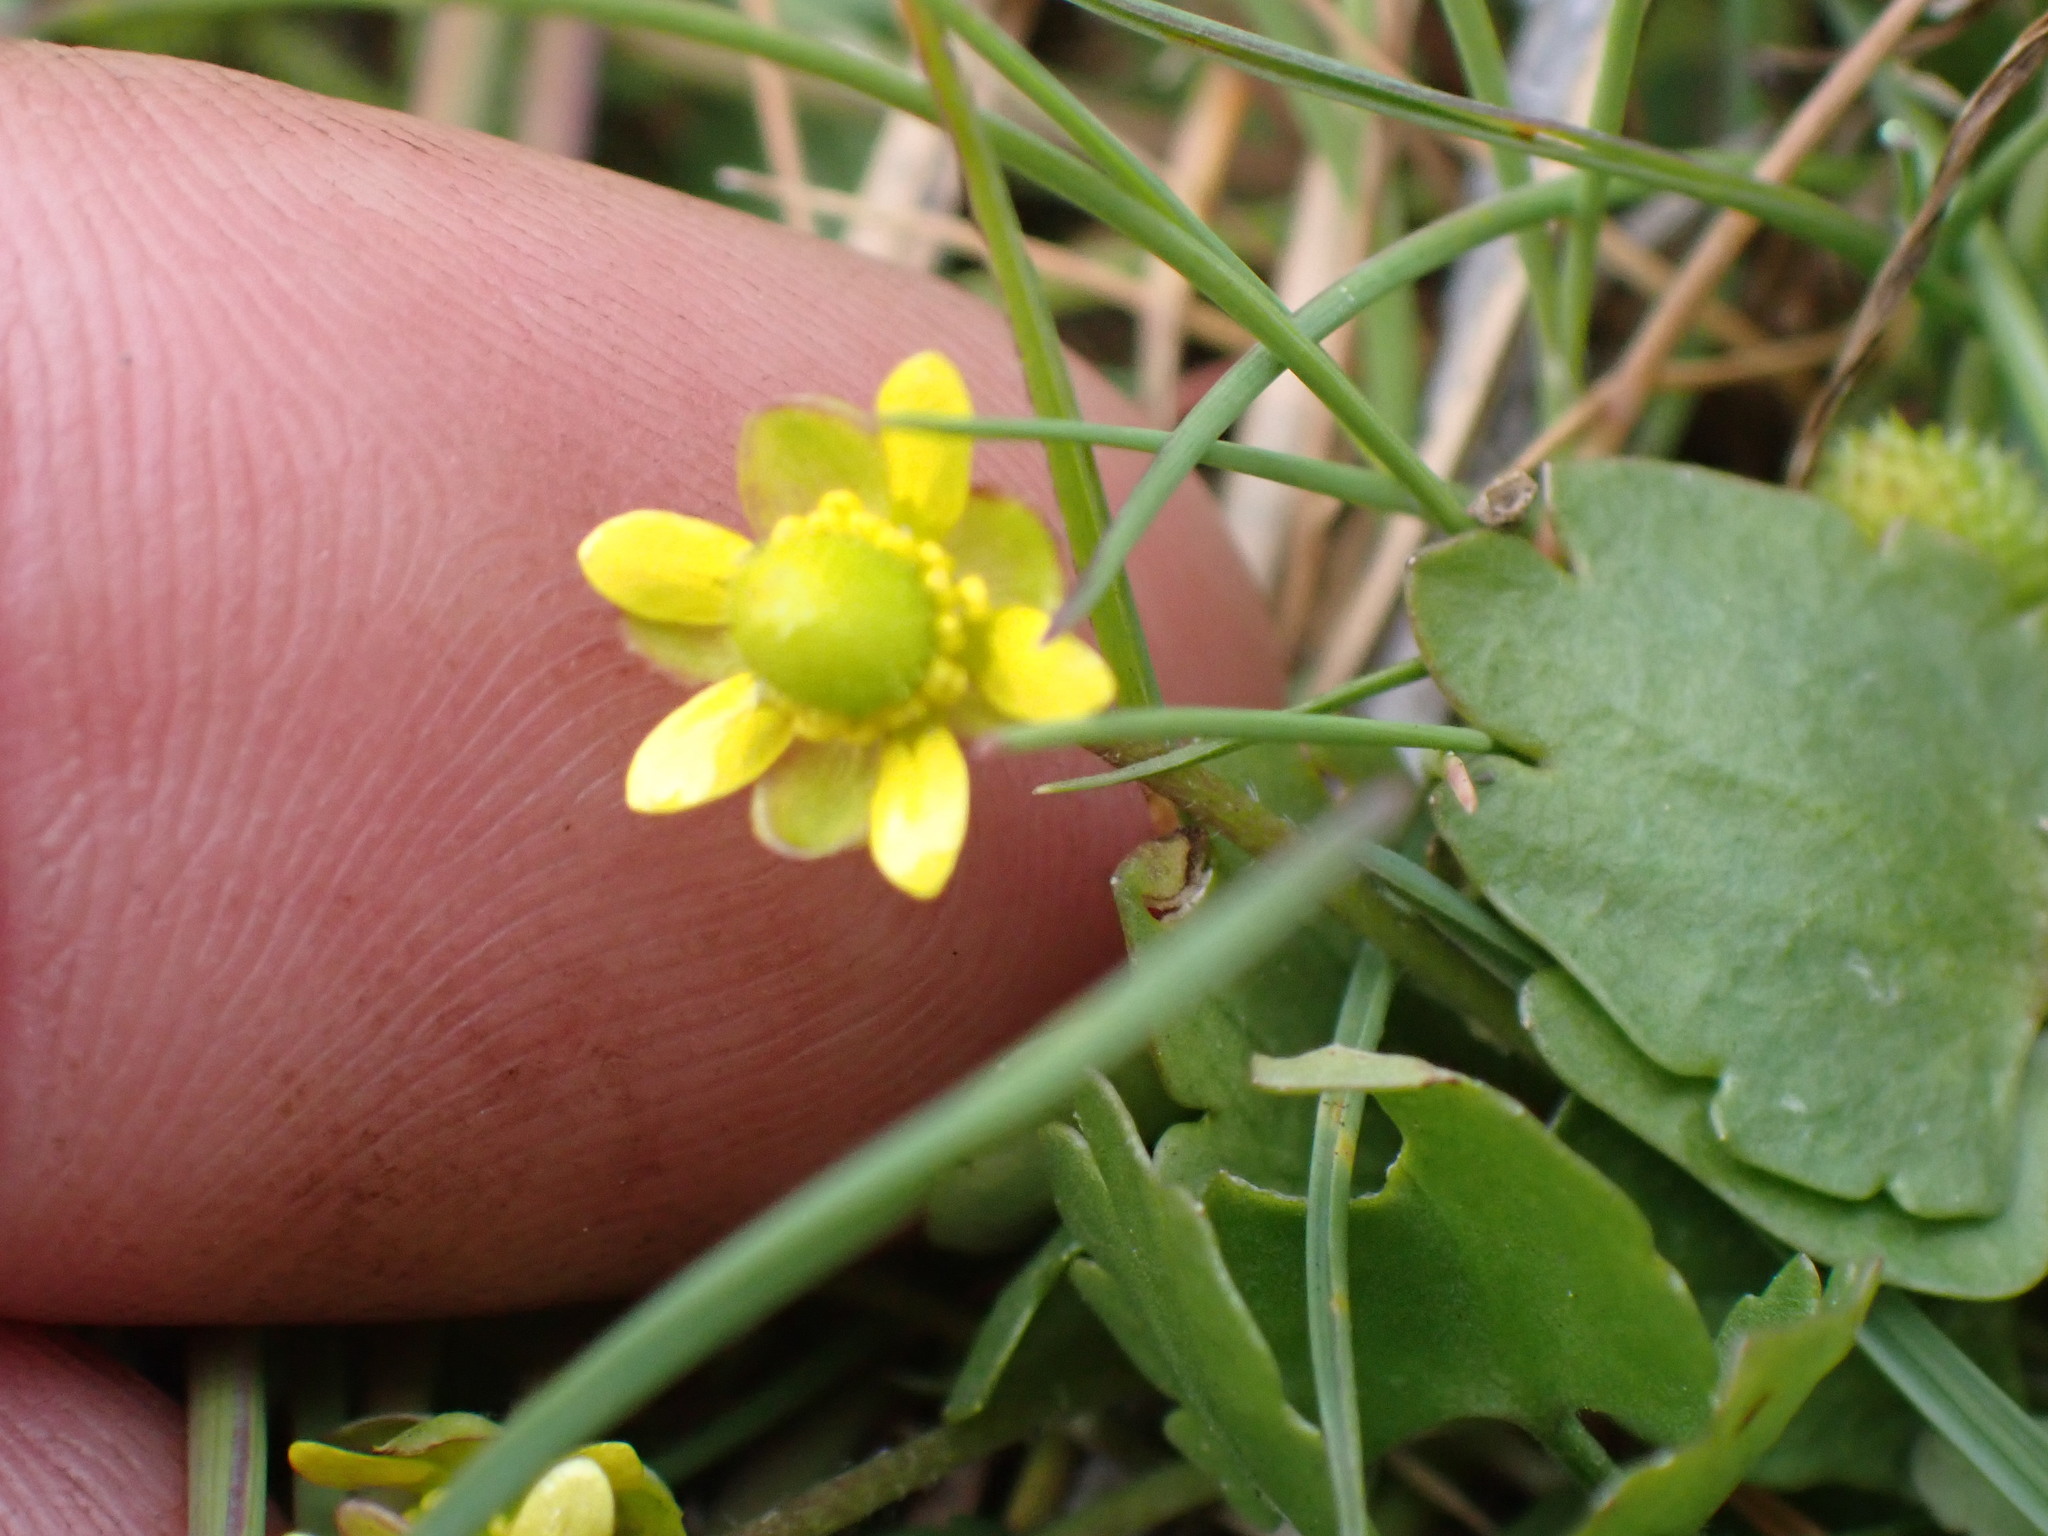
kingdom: Plantae
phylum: Tracheophyta
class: Magnoliopsida
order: Ranunculales
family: Ranunculaceae
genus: Ranunculus
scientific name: Ranunculus glaberrimus
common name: Sagebrush buttercup
